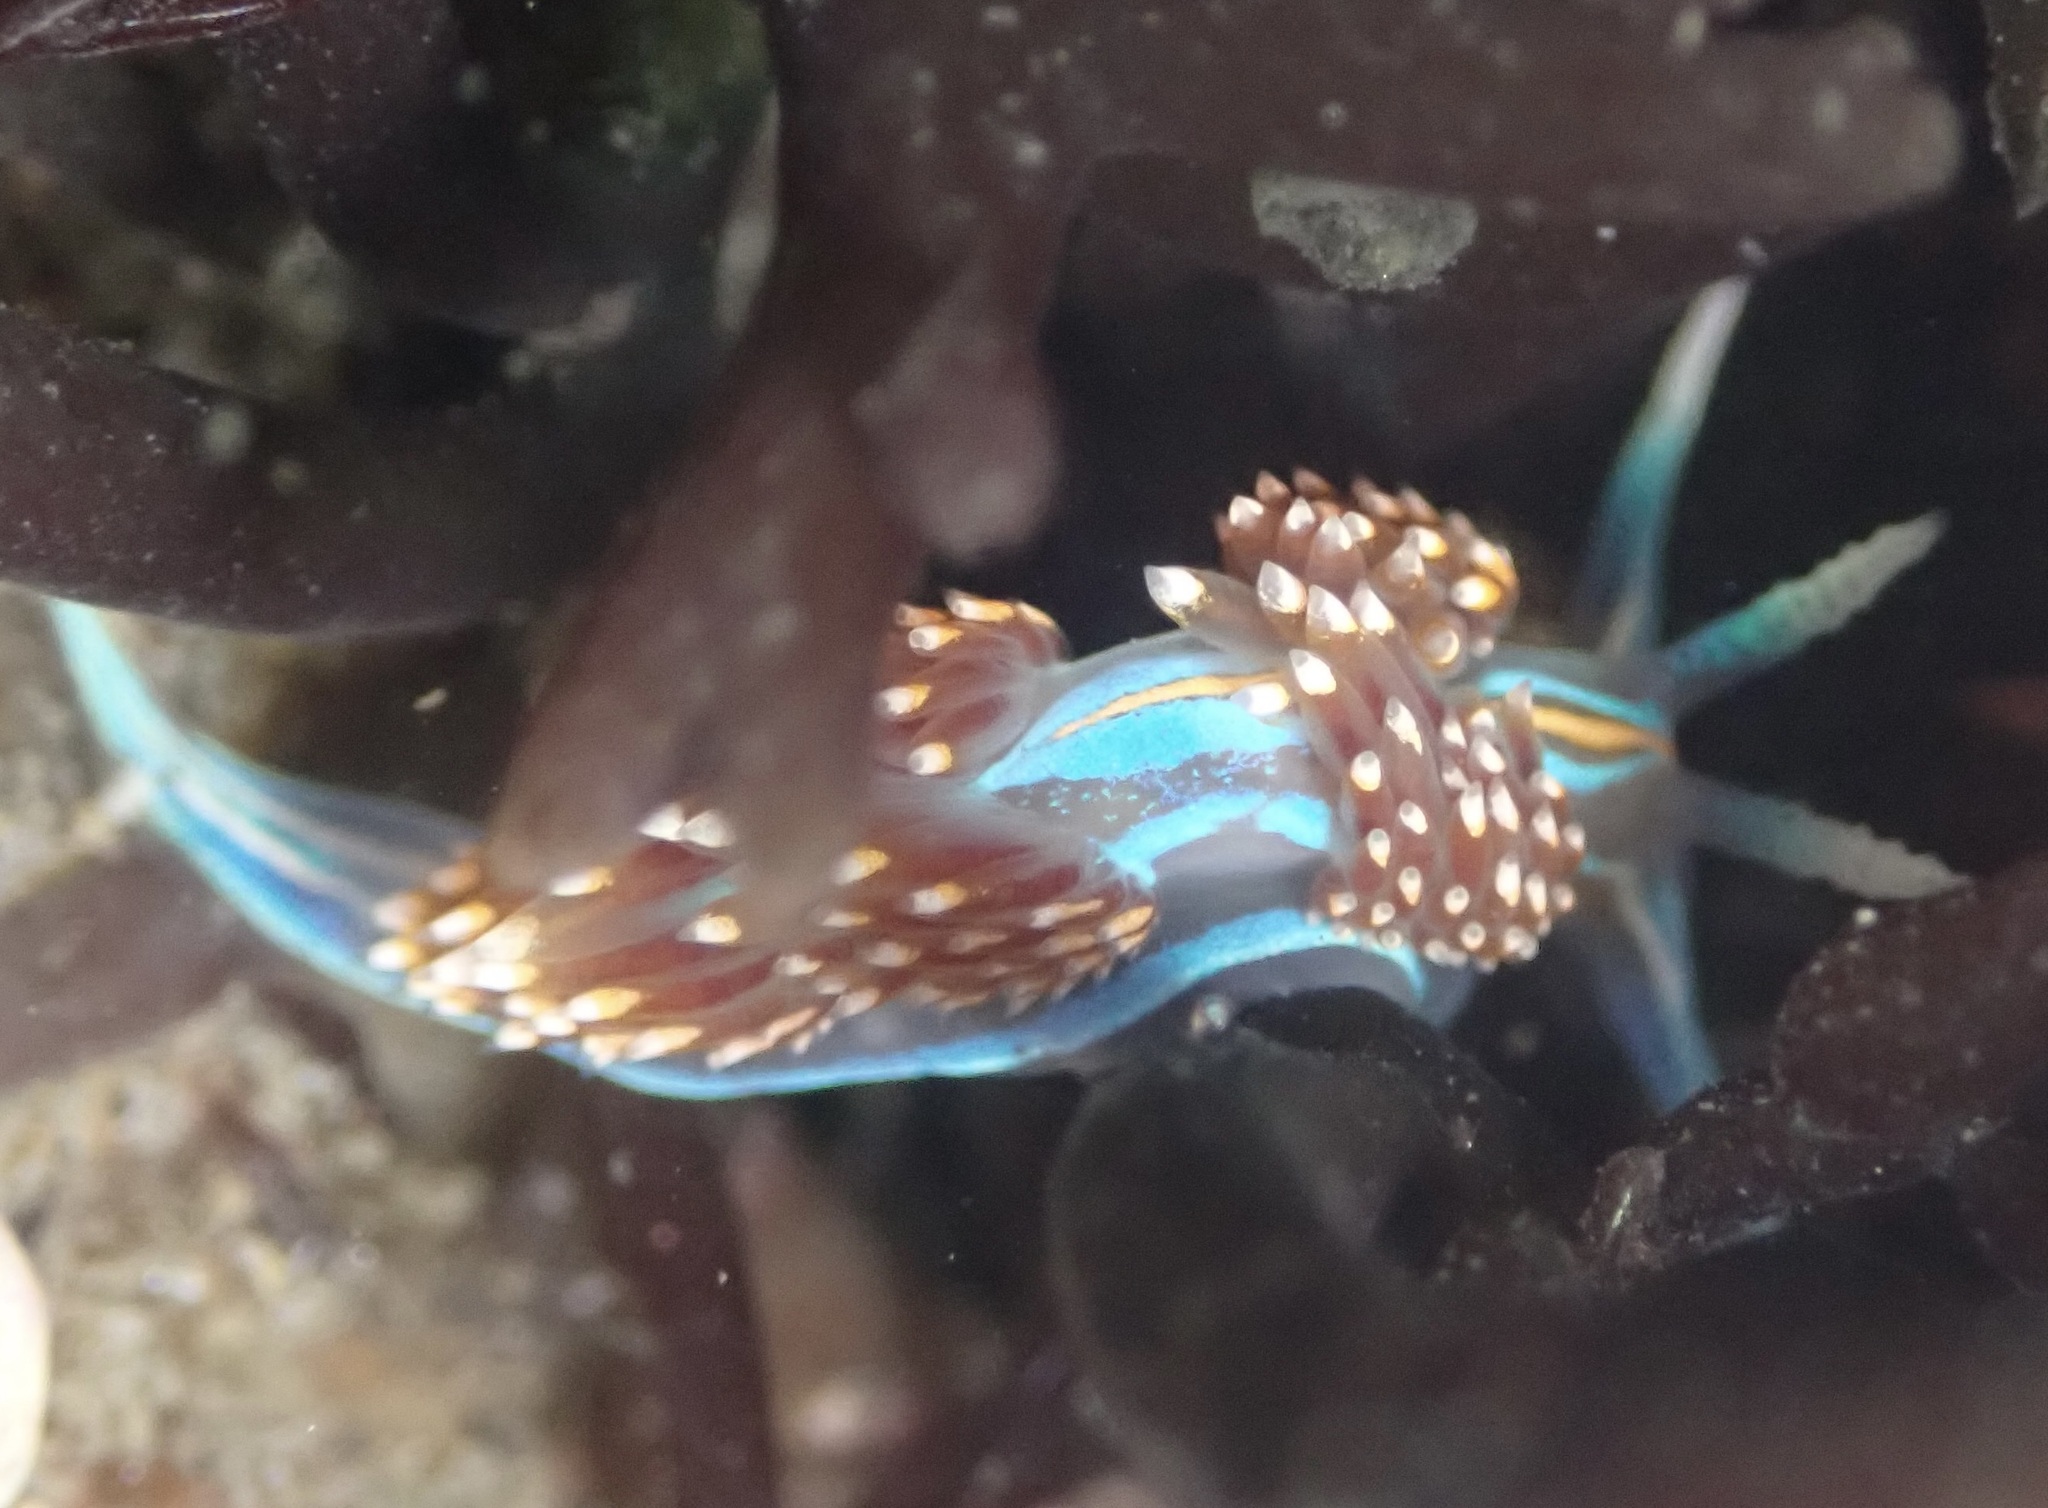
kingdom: Animalia
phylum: Mollusca
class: Gastropoda
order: Nudibranchia
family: Myrrhinidae
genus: Hermissenda
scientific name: Hermissenda opalescens
